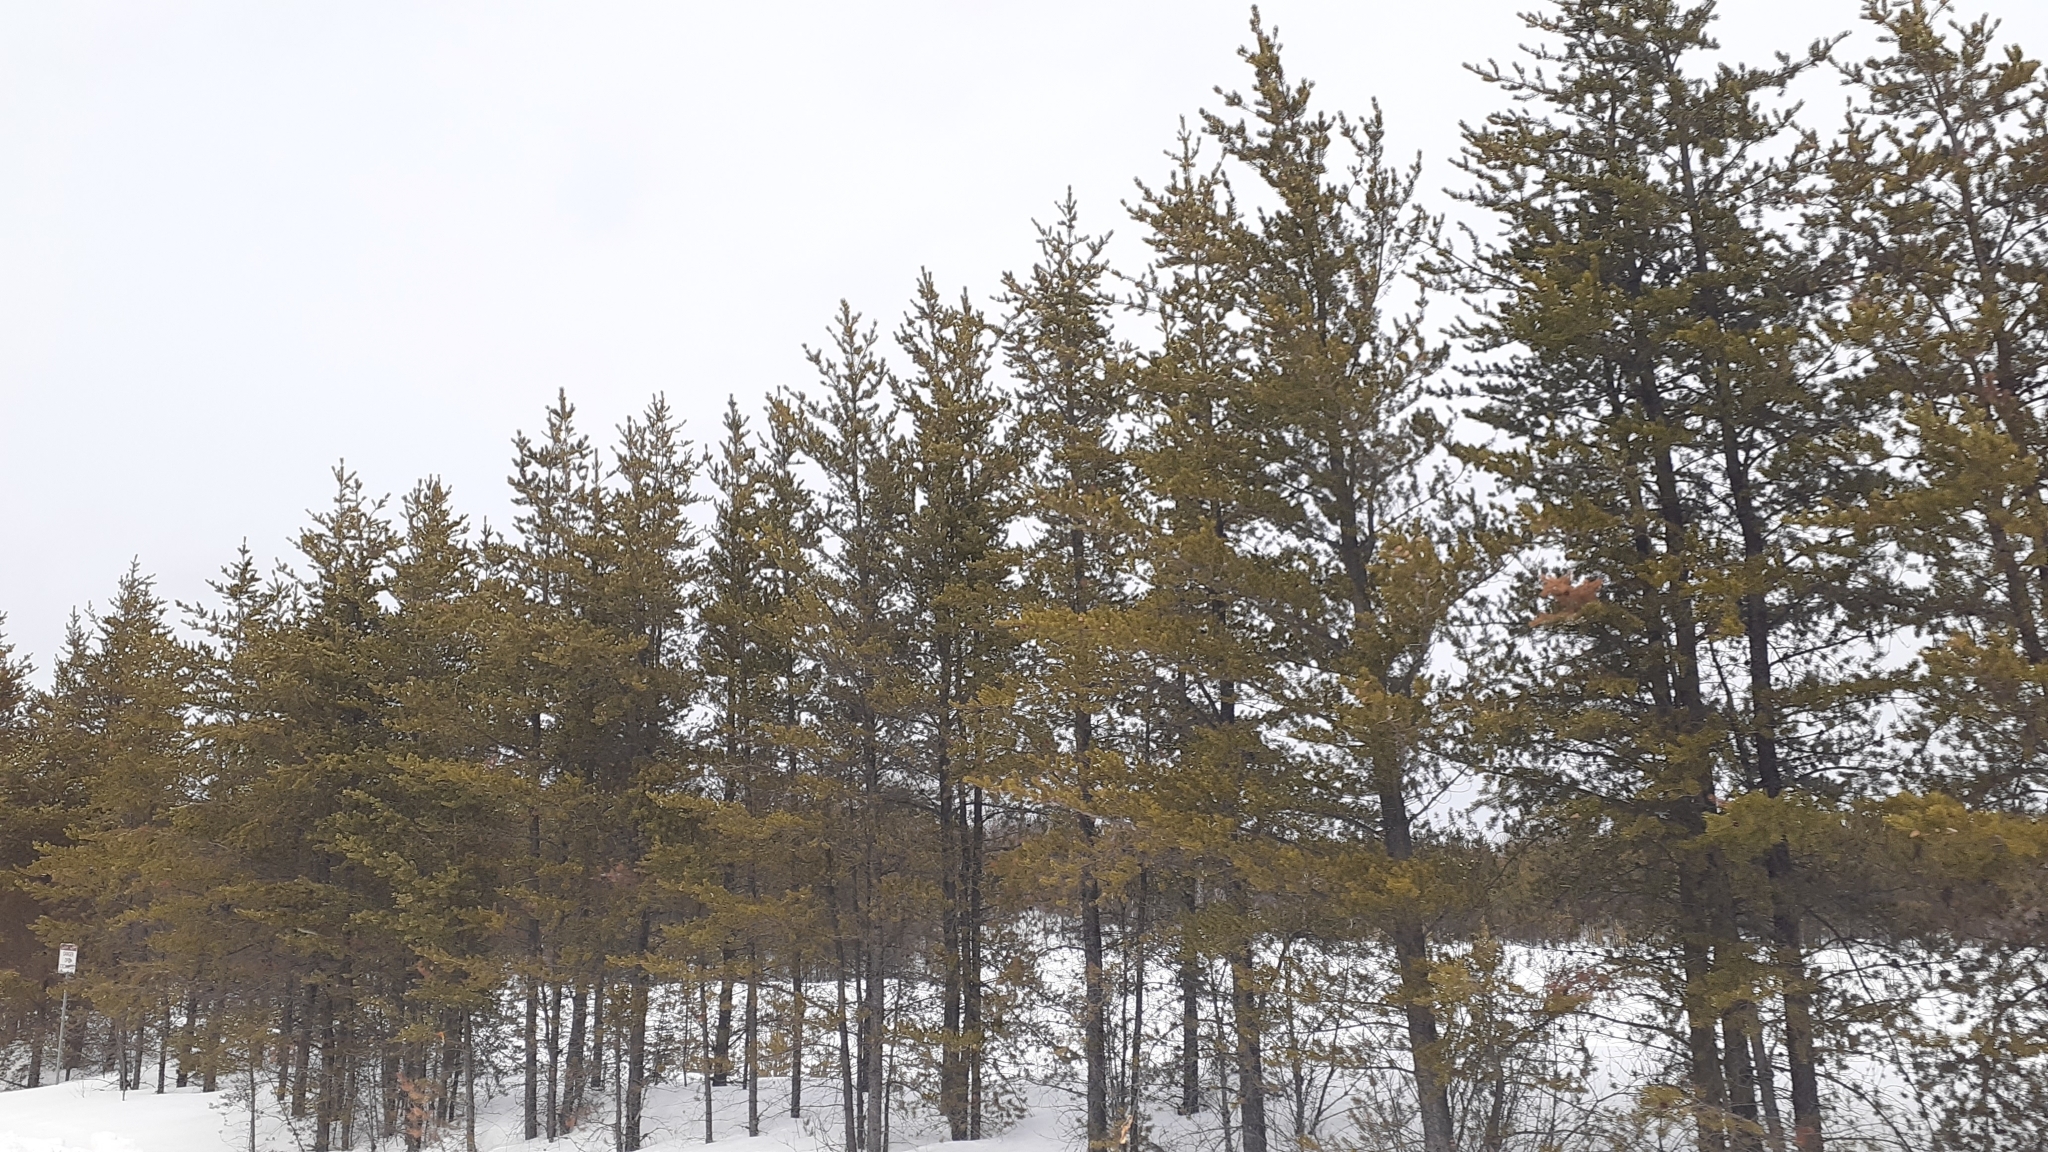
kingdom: Plantae
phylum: Tracheophyta
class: Pinopsida
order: Pinales
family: Pinaceae
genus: Pinus
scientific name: Pinus banksiana
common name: Jack pine
